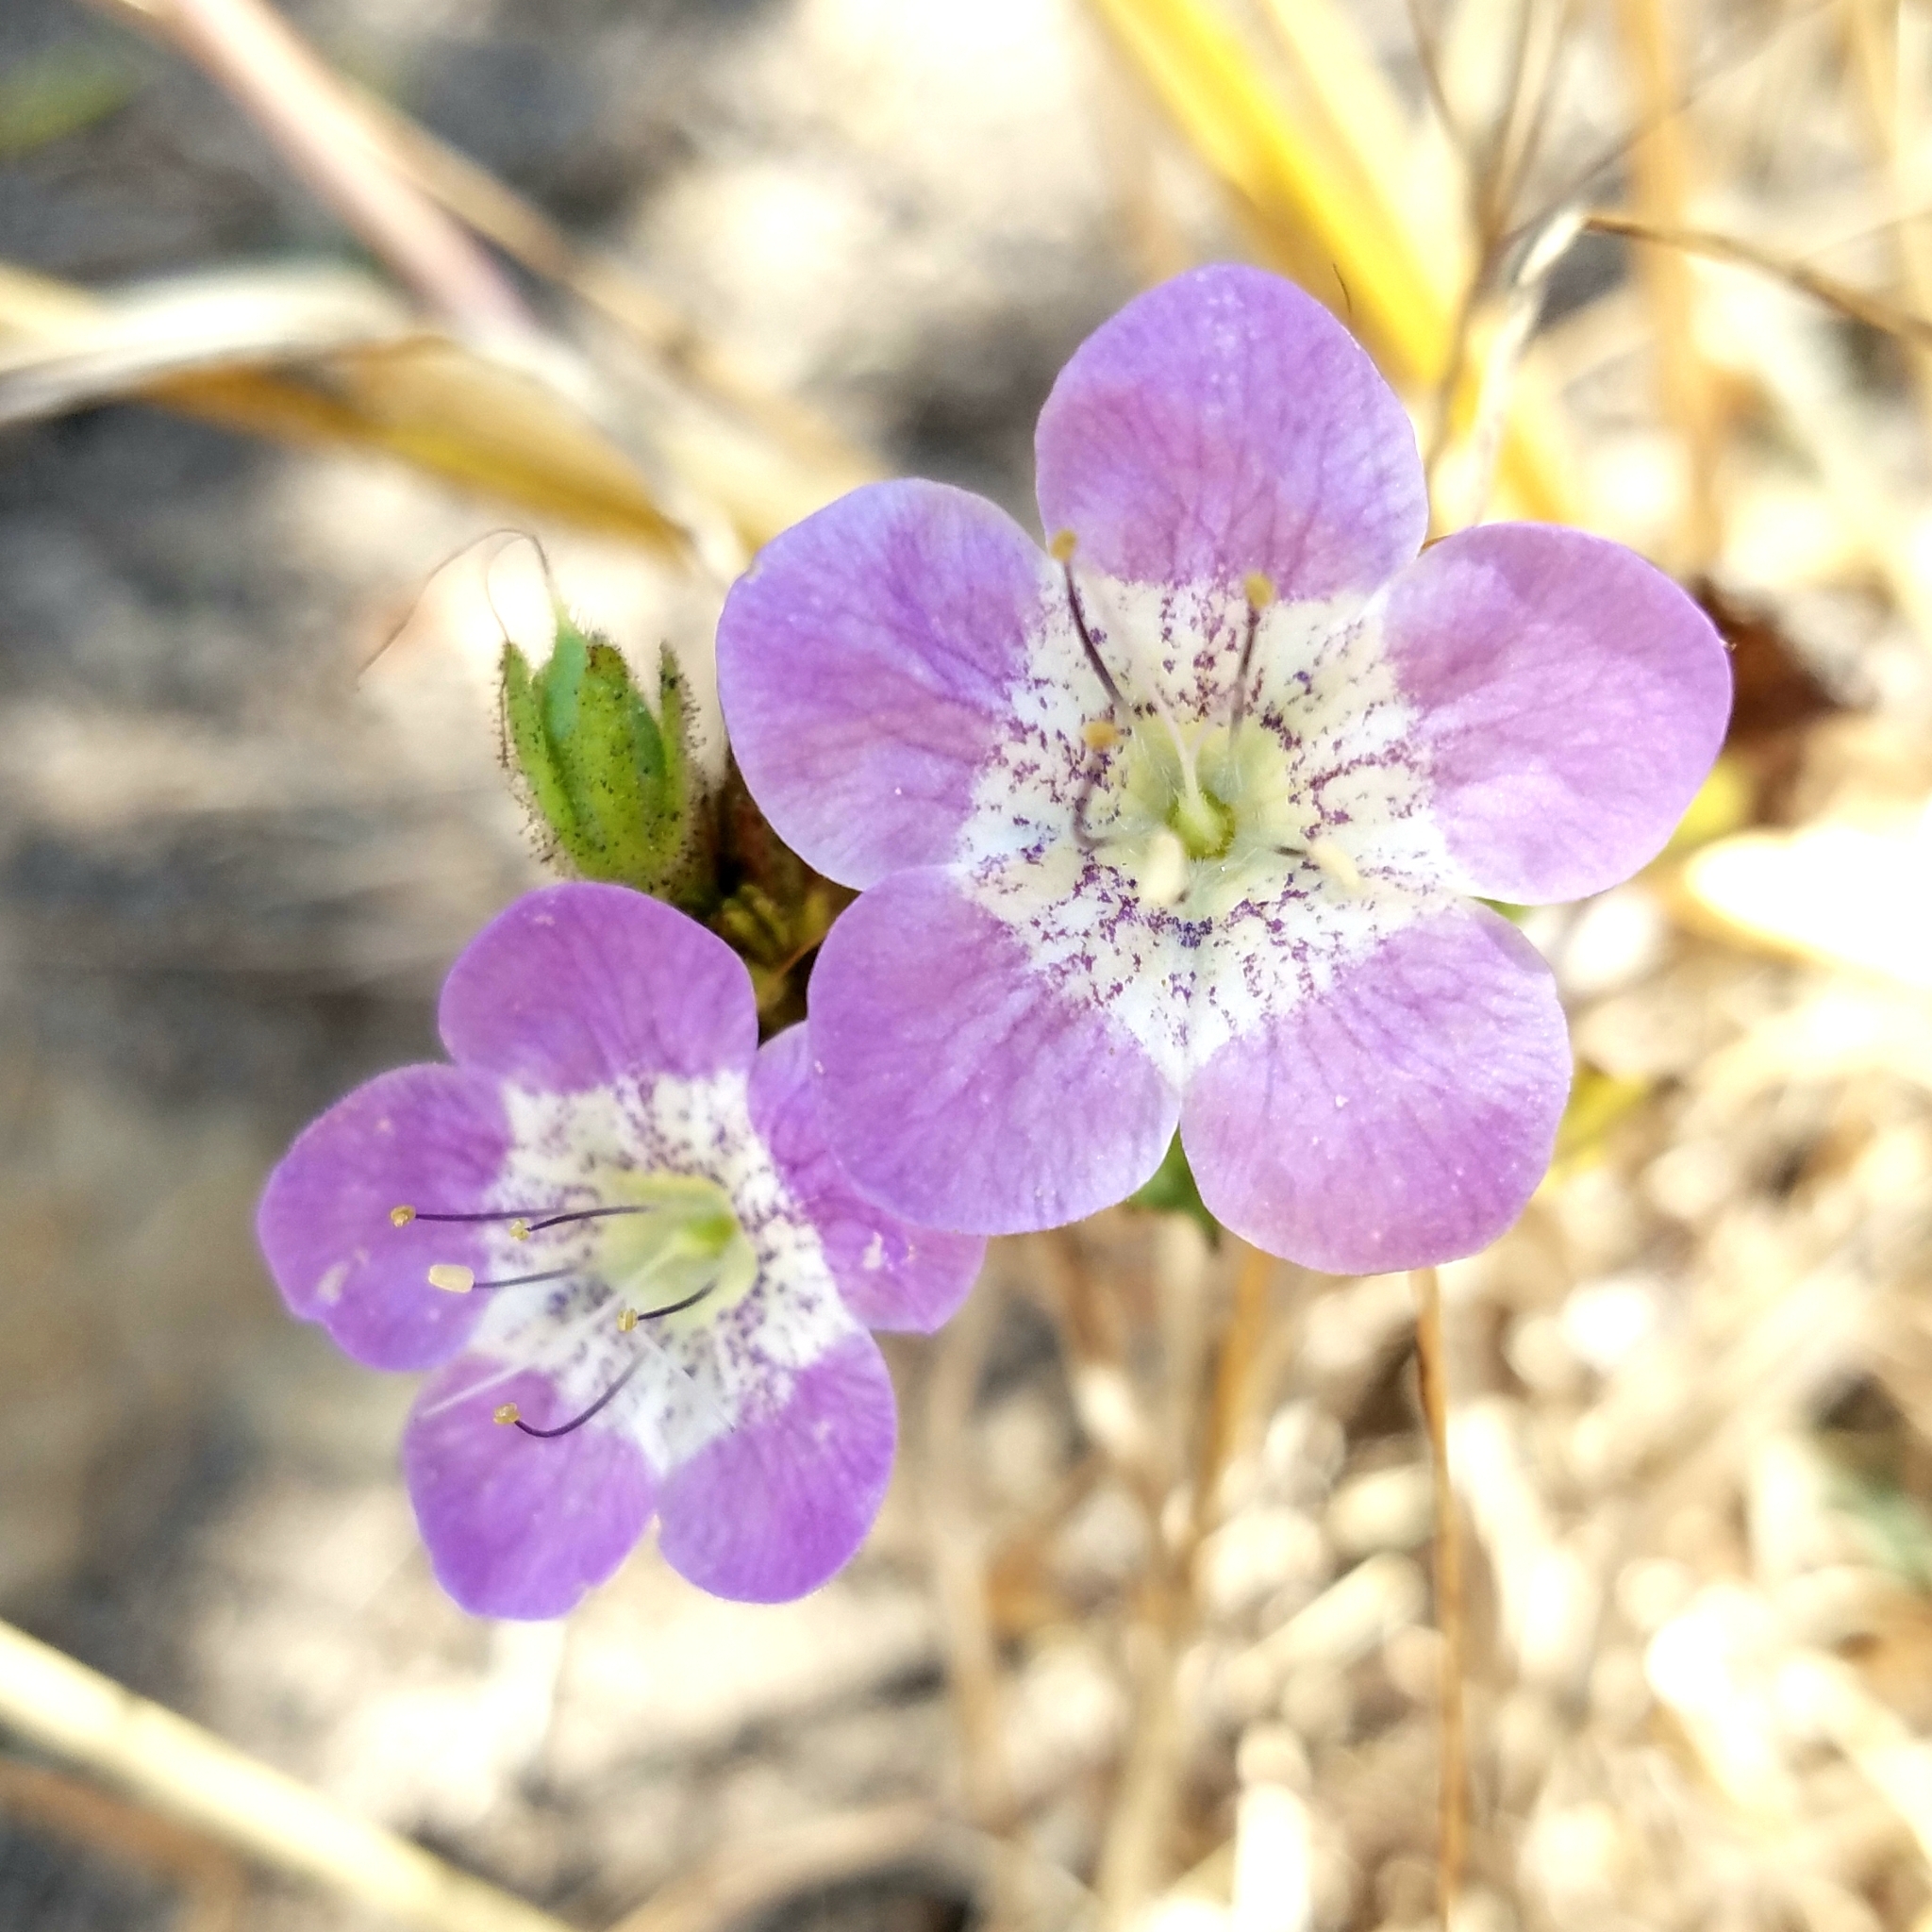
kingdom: Plantae
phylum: Tracheophyta
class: Magnoliopsida
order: Boraginales
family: Hydrophyllaceae
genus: Phacelia
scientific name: Phacelia grandiflora
